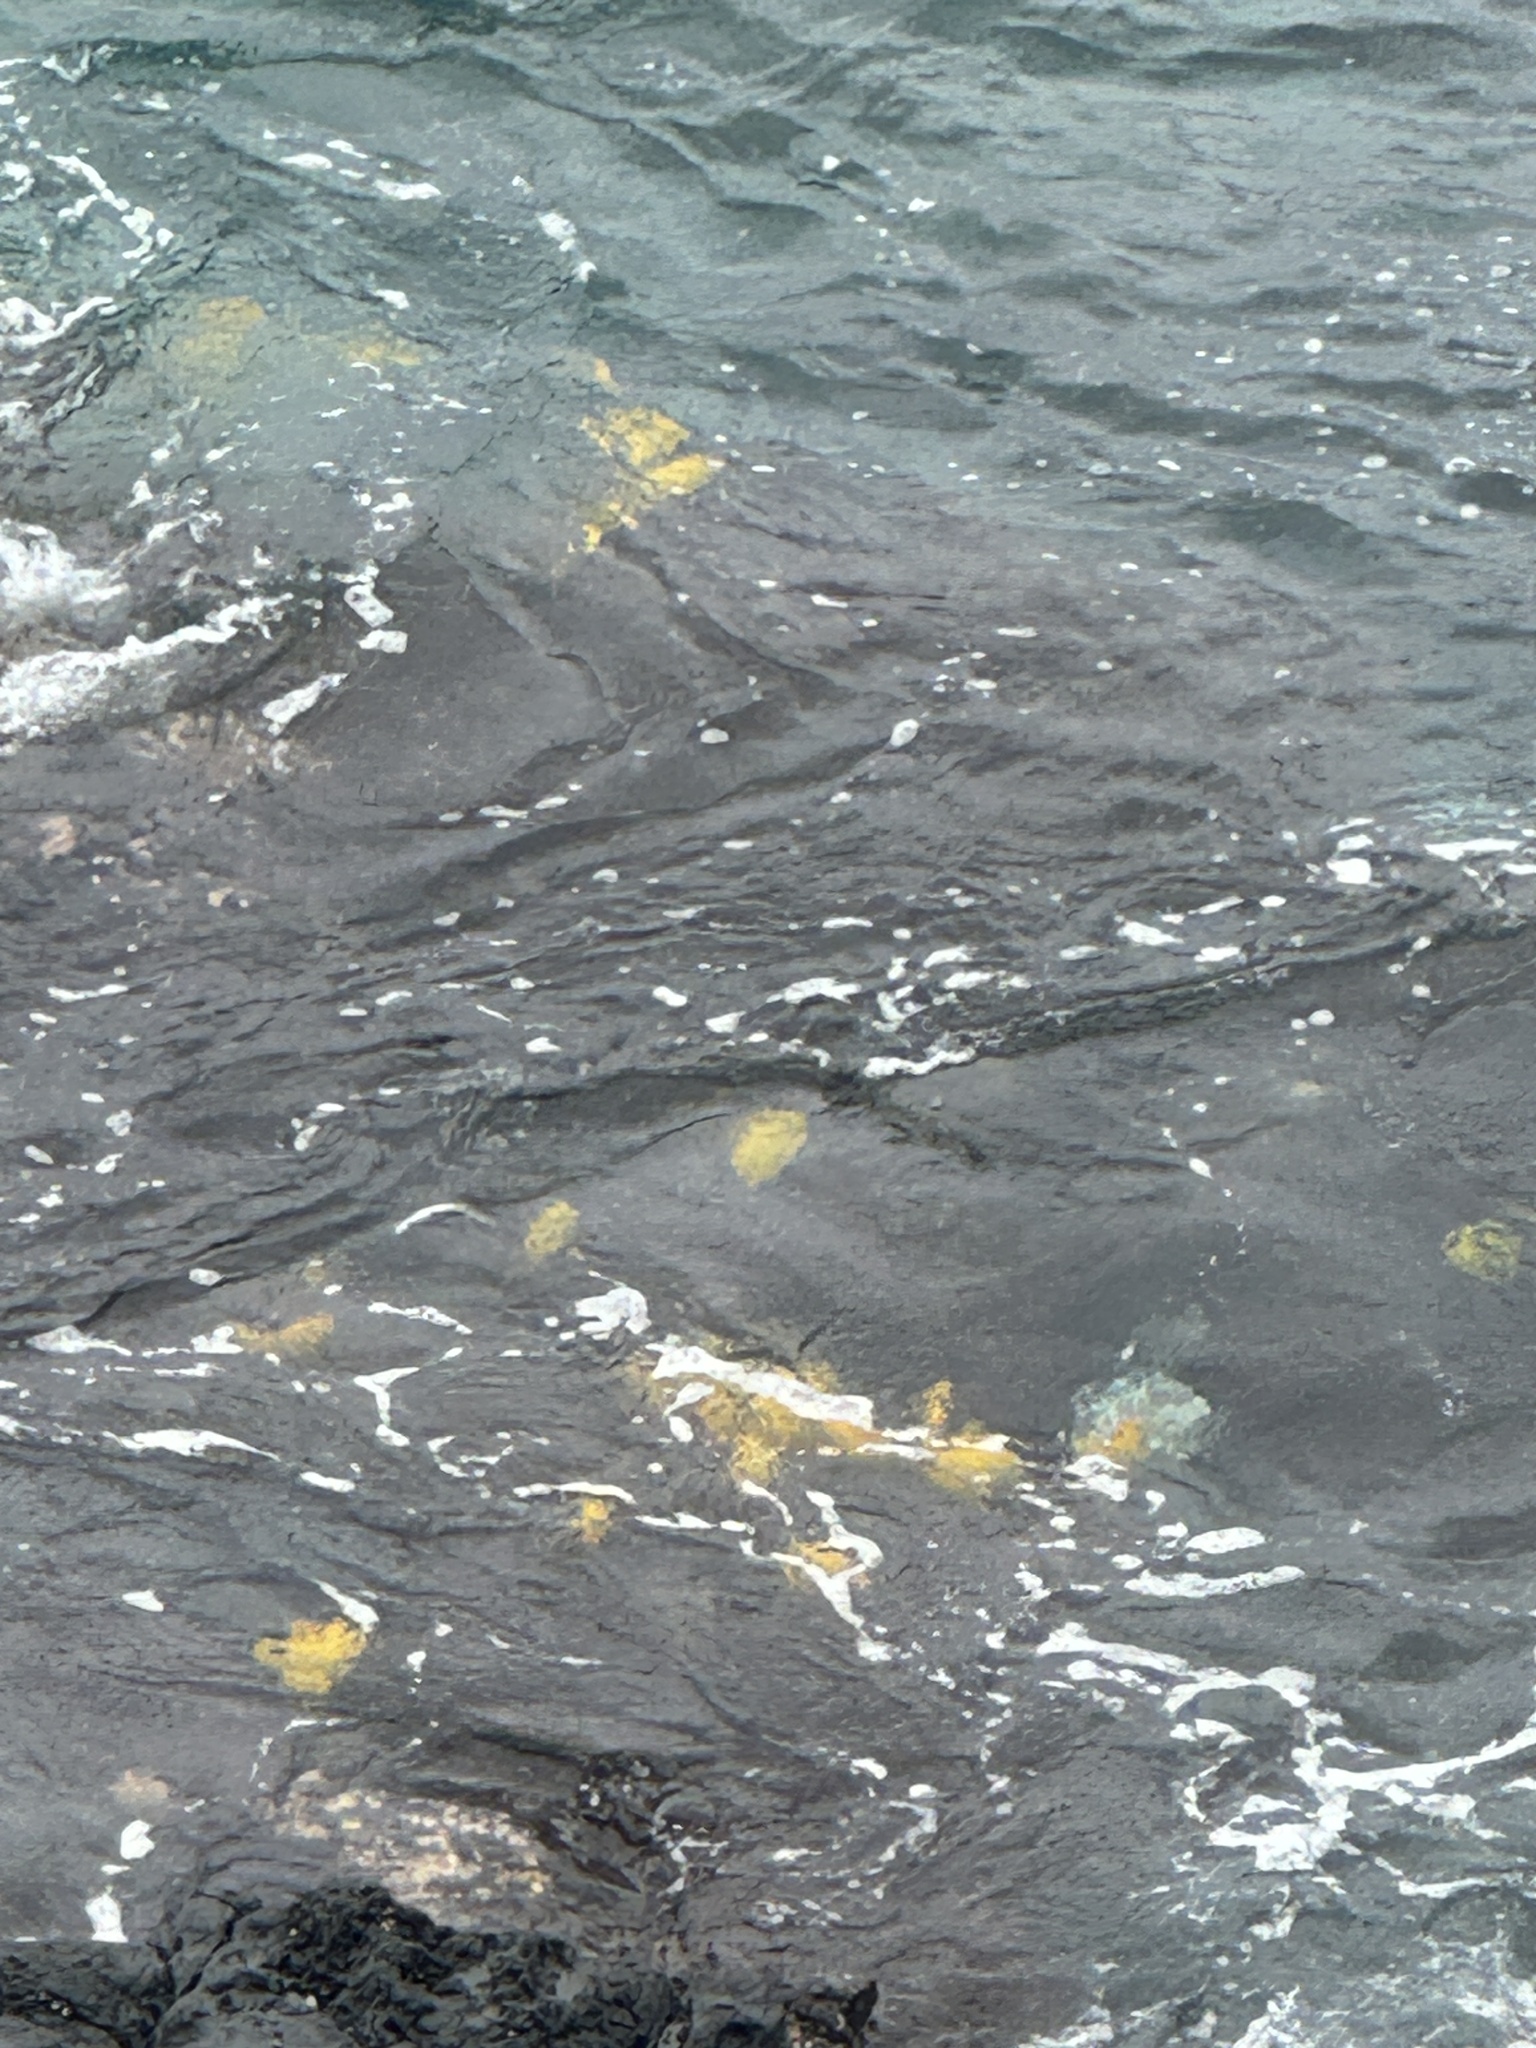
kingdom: Animalia
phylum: Chordata
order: Perciformes
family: Acanthuridae
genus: Zebrasoma
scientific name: Zebrasoma flavescens
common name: Yellow tang
